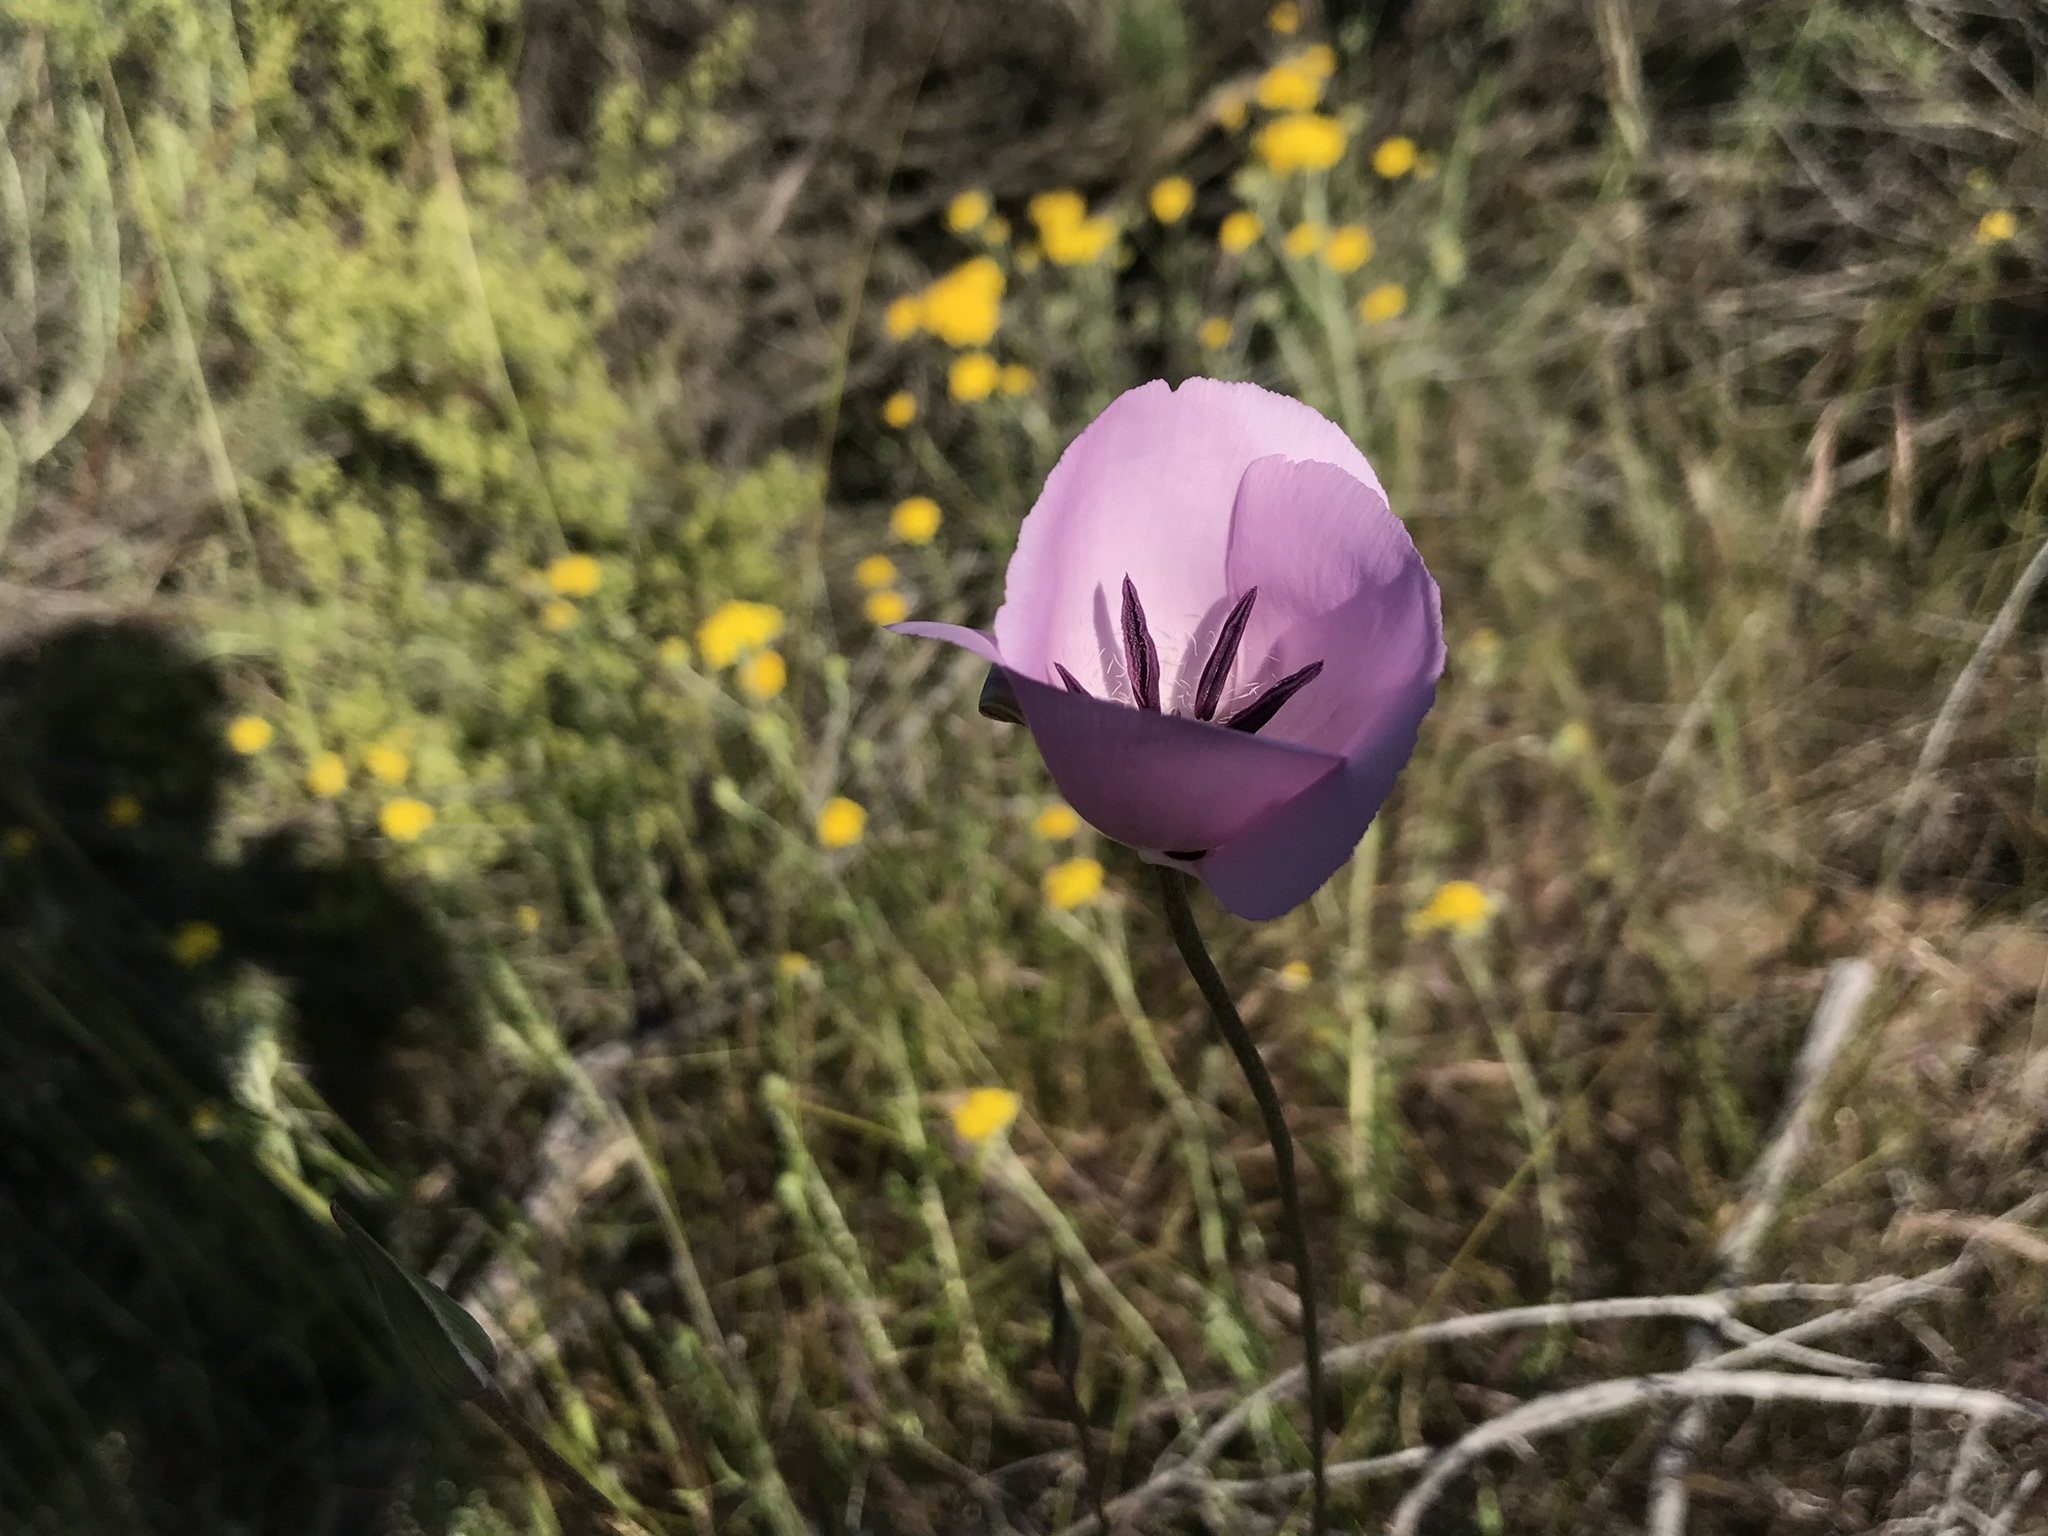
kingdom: Plantae
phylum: Tracheophyta
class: Liliopsida
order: Liliales
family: Liliaceae
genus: Calochortus
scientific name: Calochortus splendens
